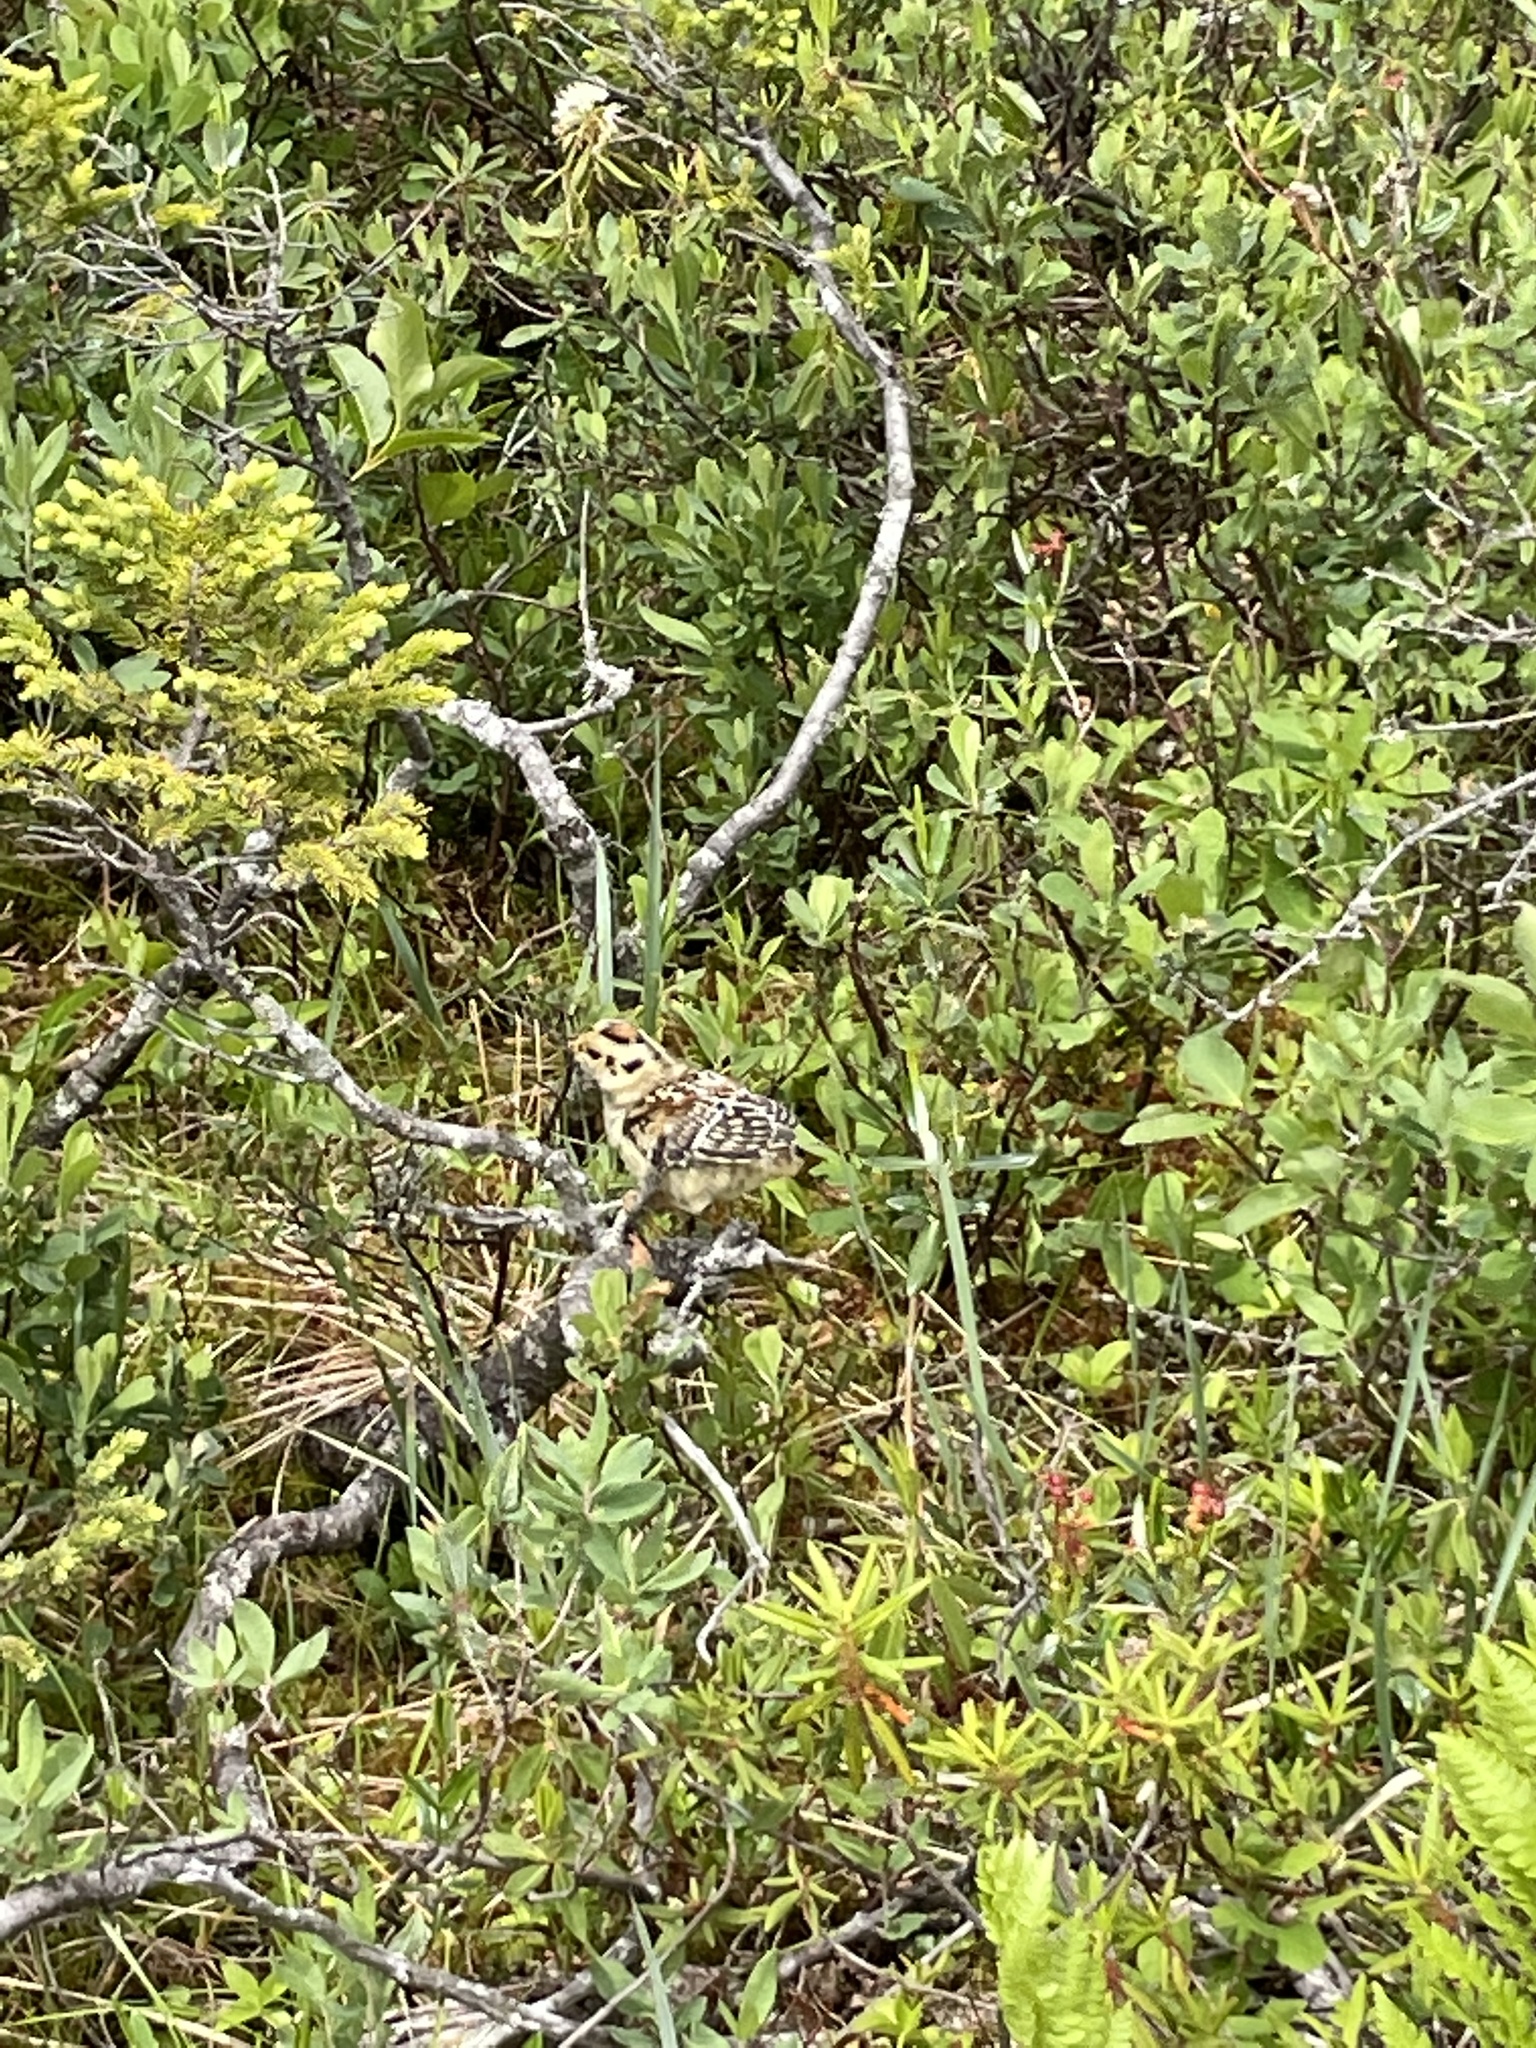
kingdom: Animalia
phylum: Chordata
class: Aves
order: Galliformes
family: Phasianidae
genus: Canachites
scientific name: Canachites canadensis
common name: Spruce grouse
